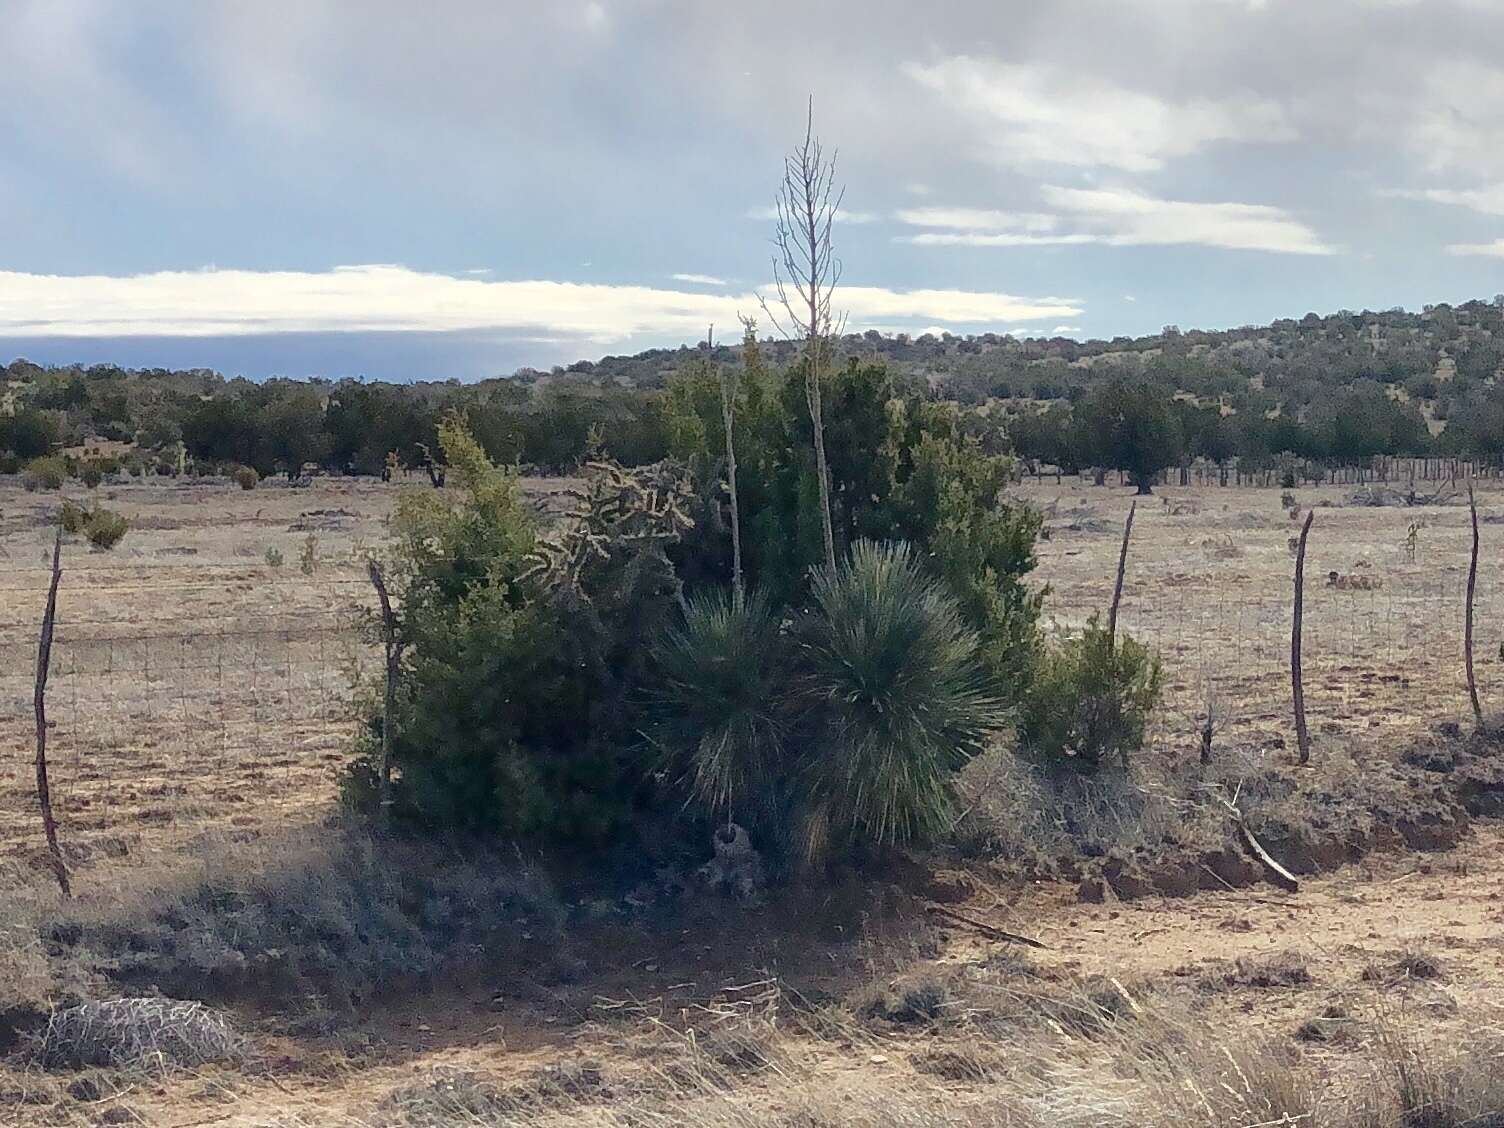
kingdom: Plantae
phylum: Tracheophyta
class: Liliopsida
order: Asparagales
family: Asparagaceae
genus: Yucca
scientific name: Yucca elata
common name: Palmella
